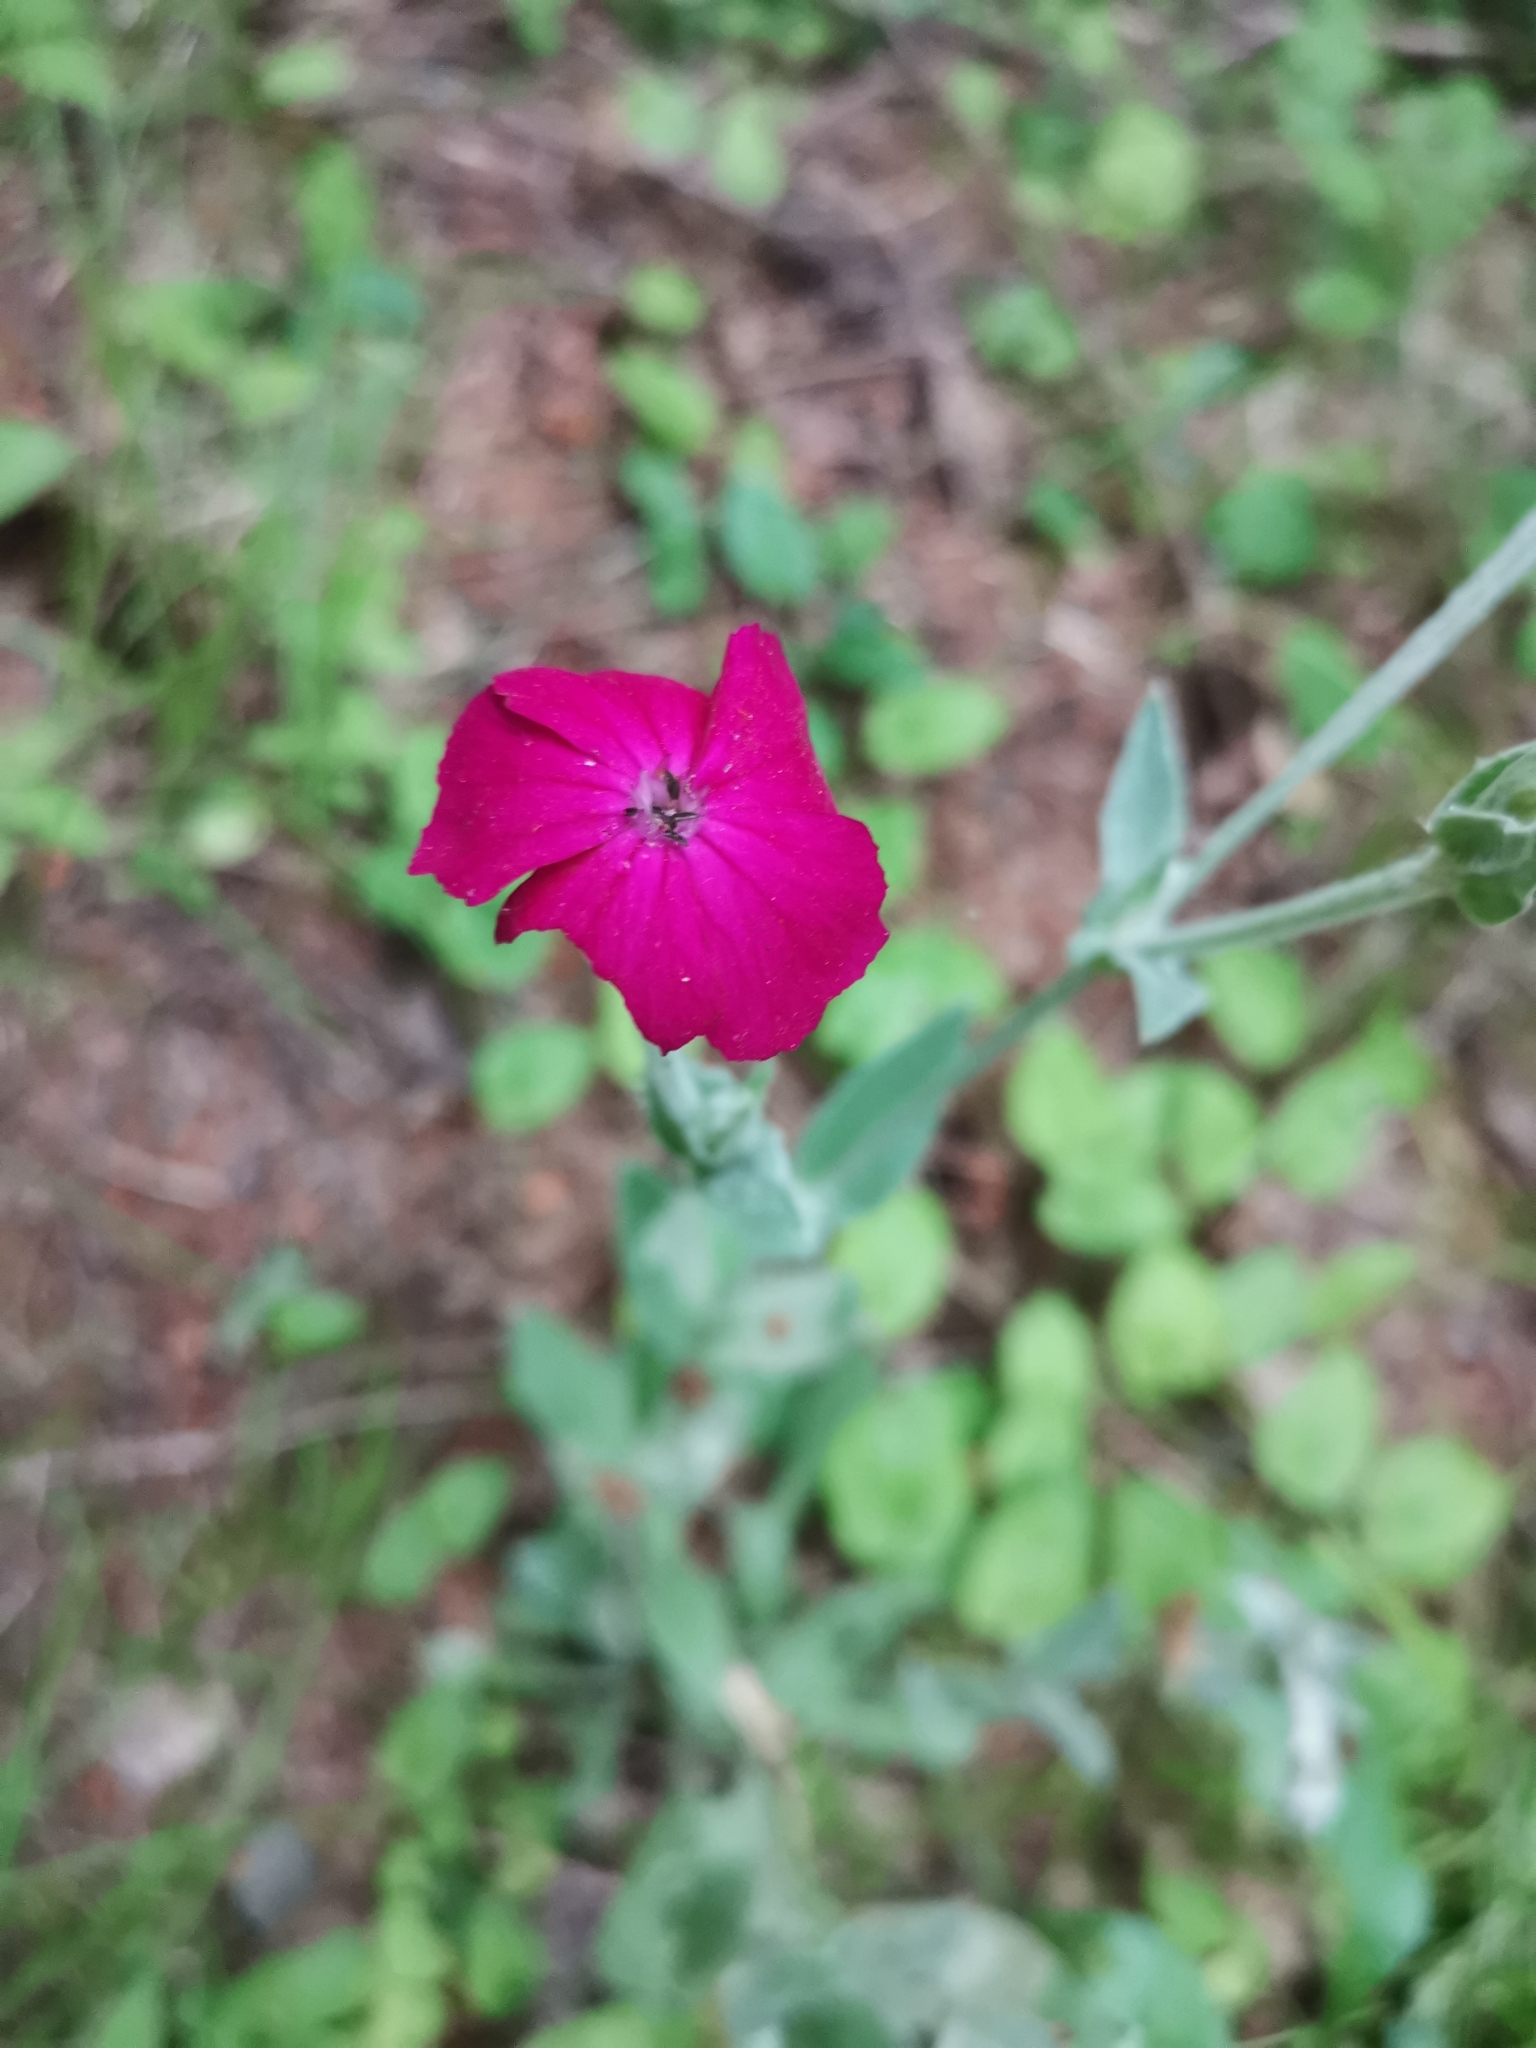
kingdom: Plantae
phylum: Tracheophyta
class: Magnoliopsida
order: Caryophyllales
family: Caryophyllaceae
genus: Silene
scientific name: Silene coronaria
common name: Rose campion
